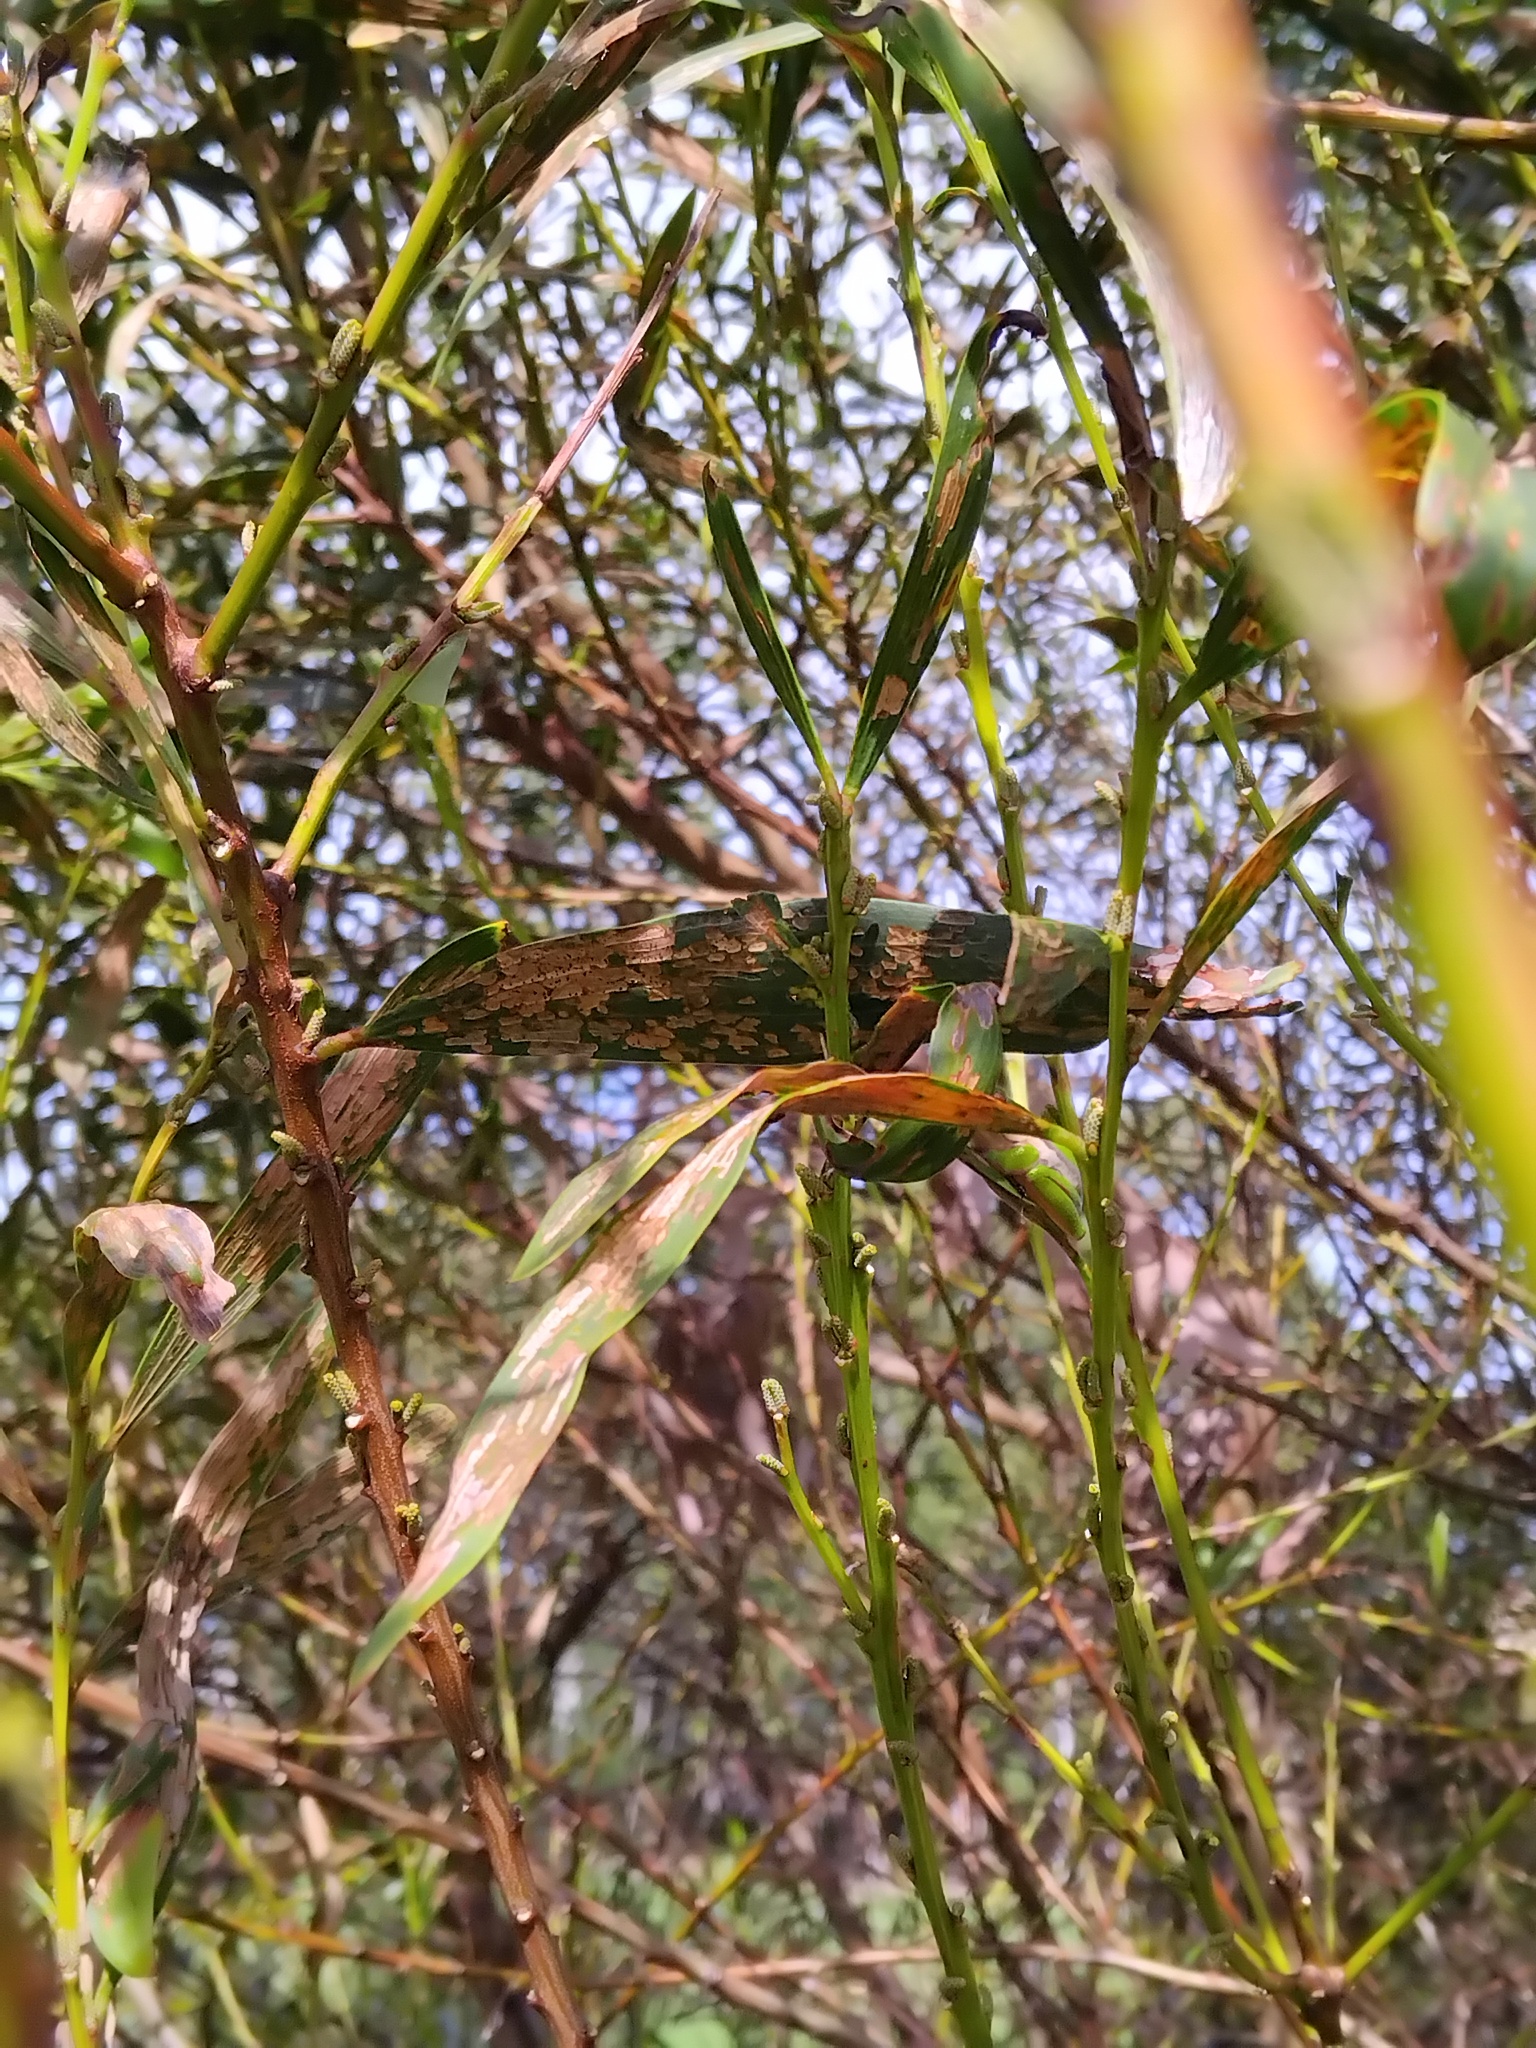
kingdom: Animalia
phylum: Chordata
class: Amphibia
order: Anura
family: Pelodryadidae
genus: Litoria
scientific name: Litoria fallax
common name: Eastern dwarf treefrog
